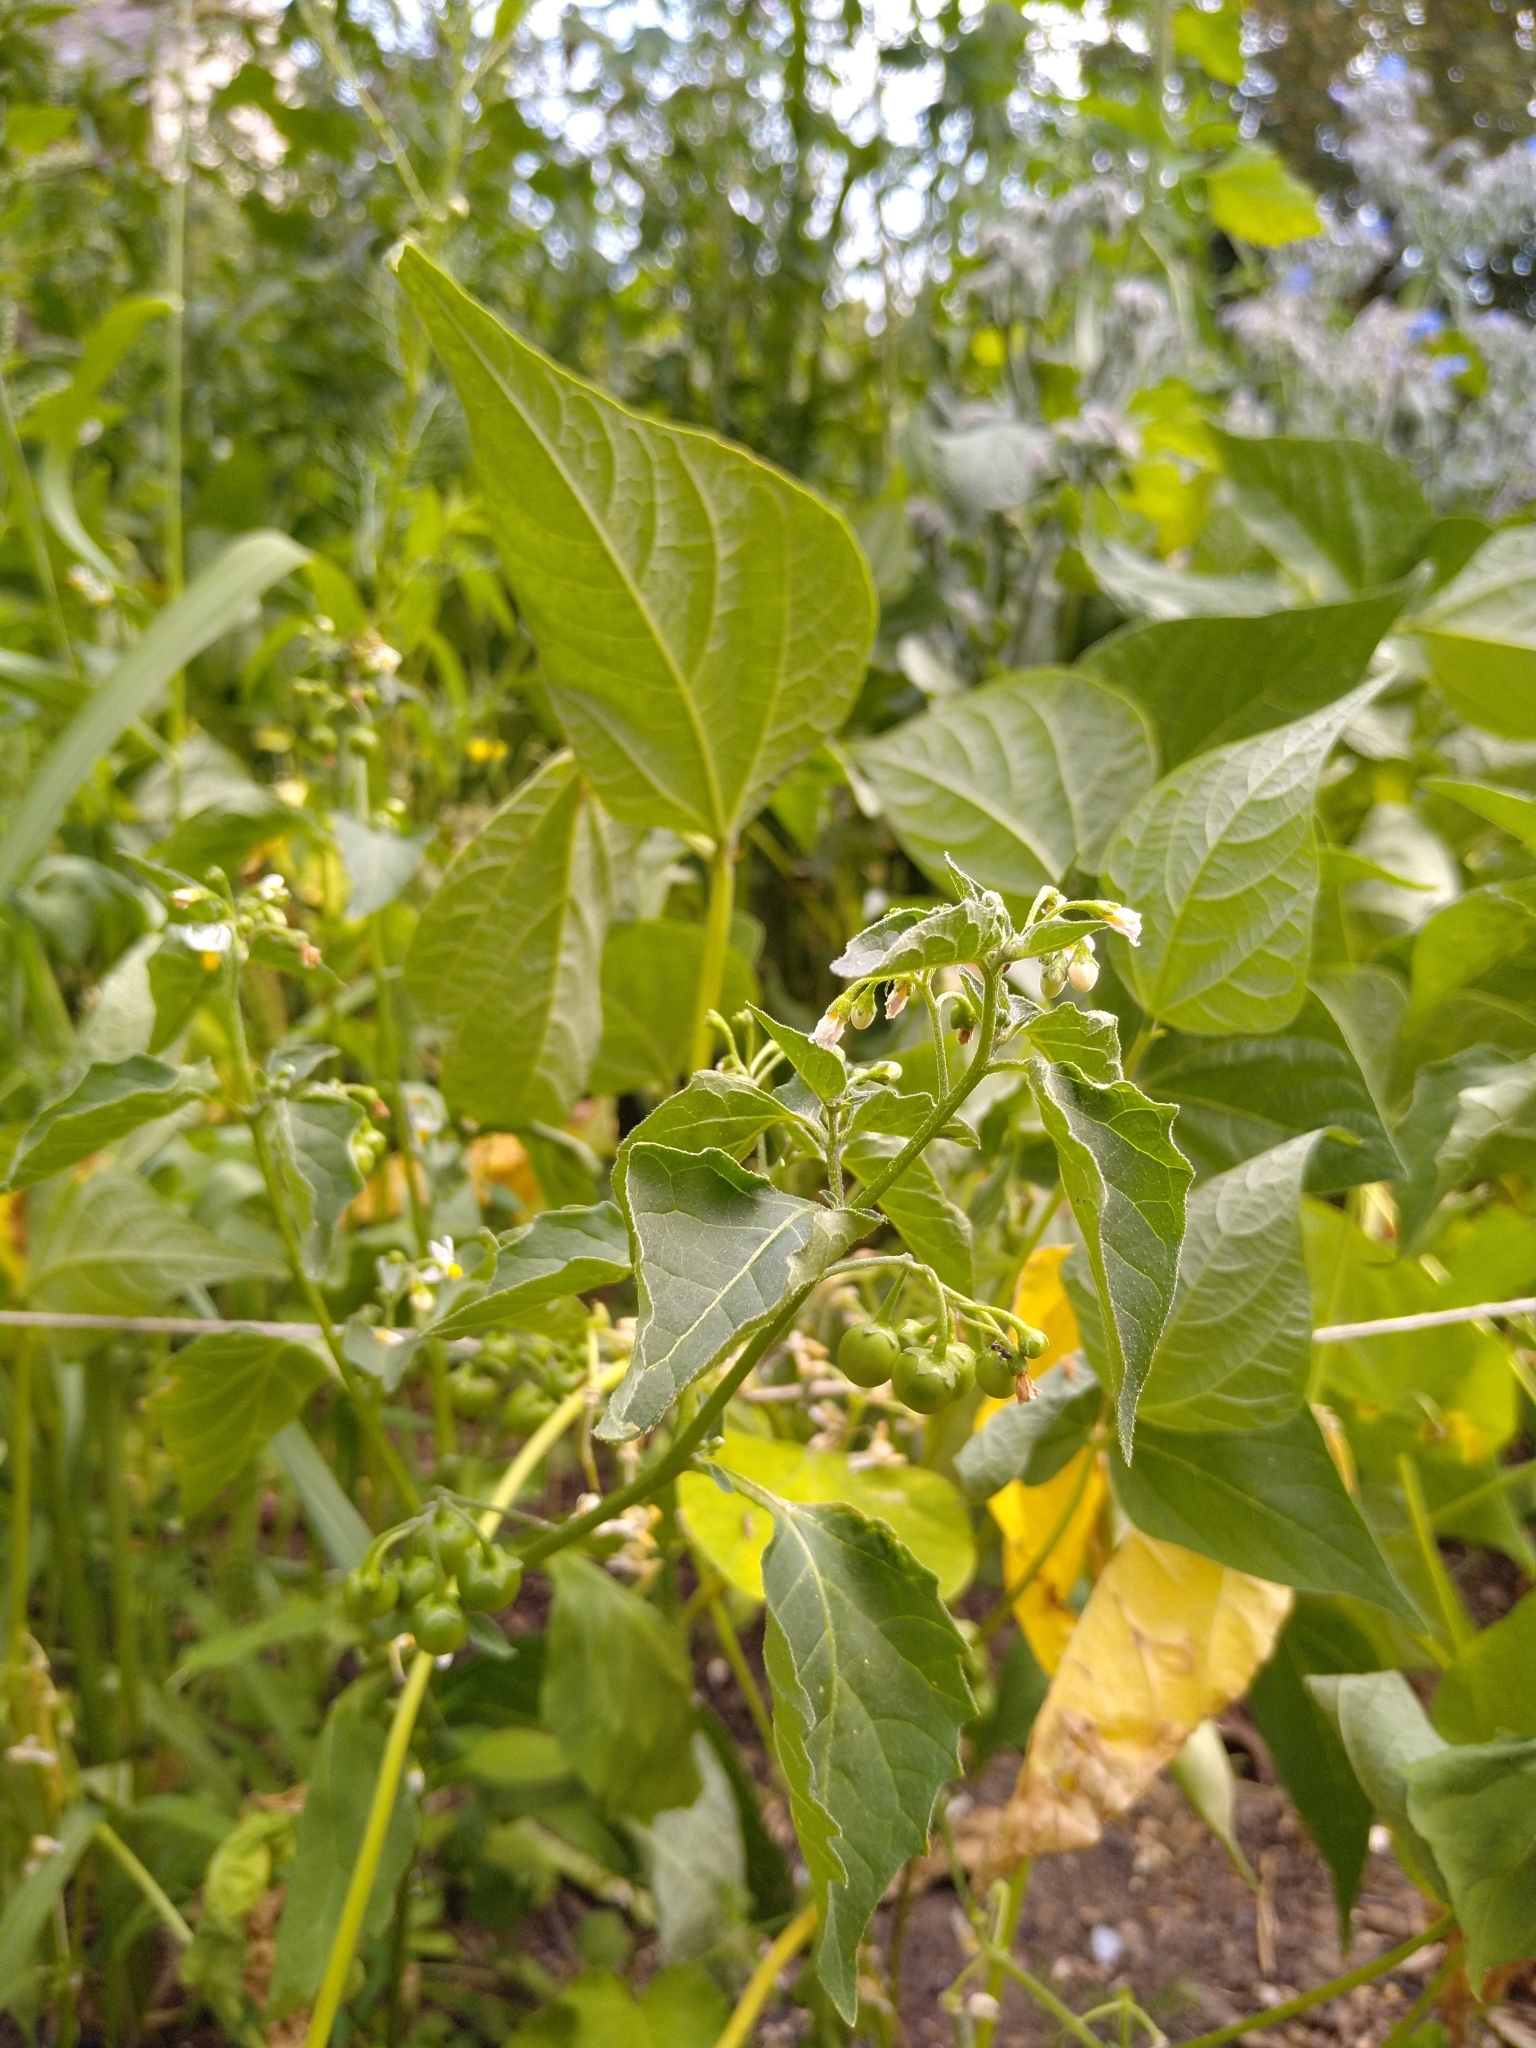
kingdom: Plantae
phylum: Tracheophyta
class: Magnoliopsida
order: Solanales
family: Solanaceae
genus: Solanum
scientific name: Solanum nigrum
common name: Black nightshade
